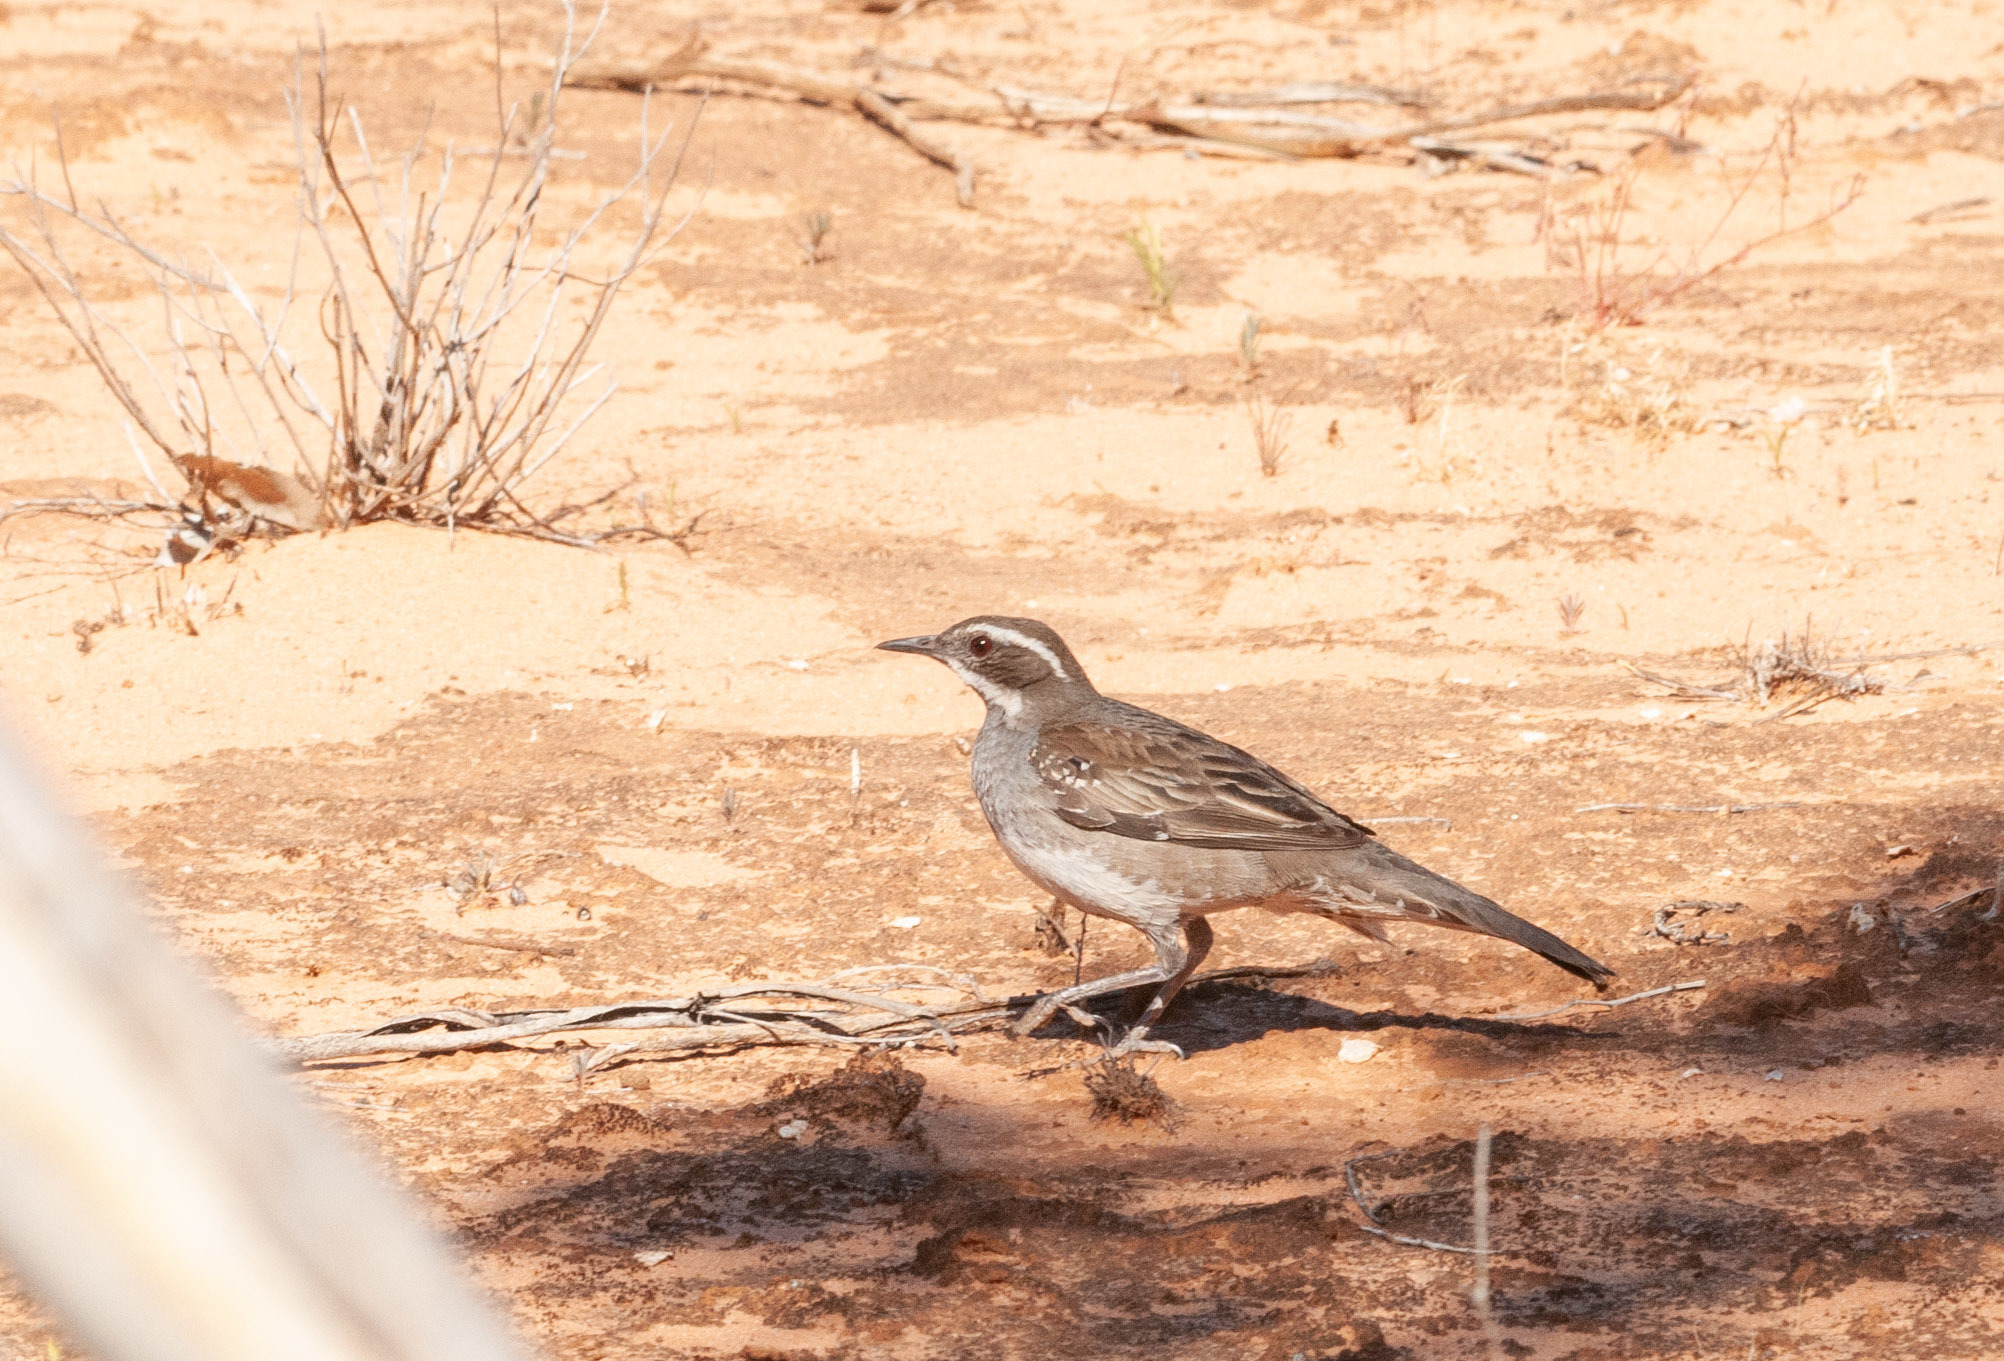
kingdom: Animalia
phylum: Chordata
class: Aves
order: Passeriformes
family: Psophodidae
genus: Cinclosoma
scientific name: Cinclosoma castanotum
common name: Chestnut quail-thrush
